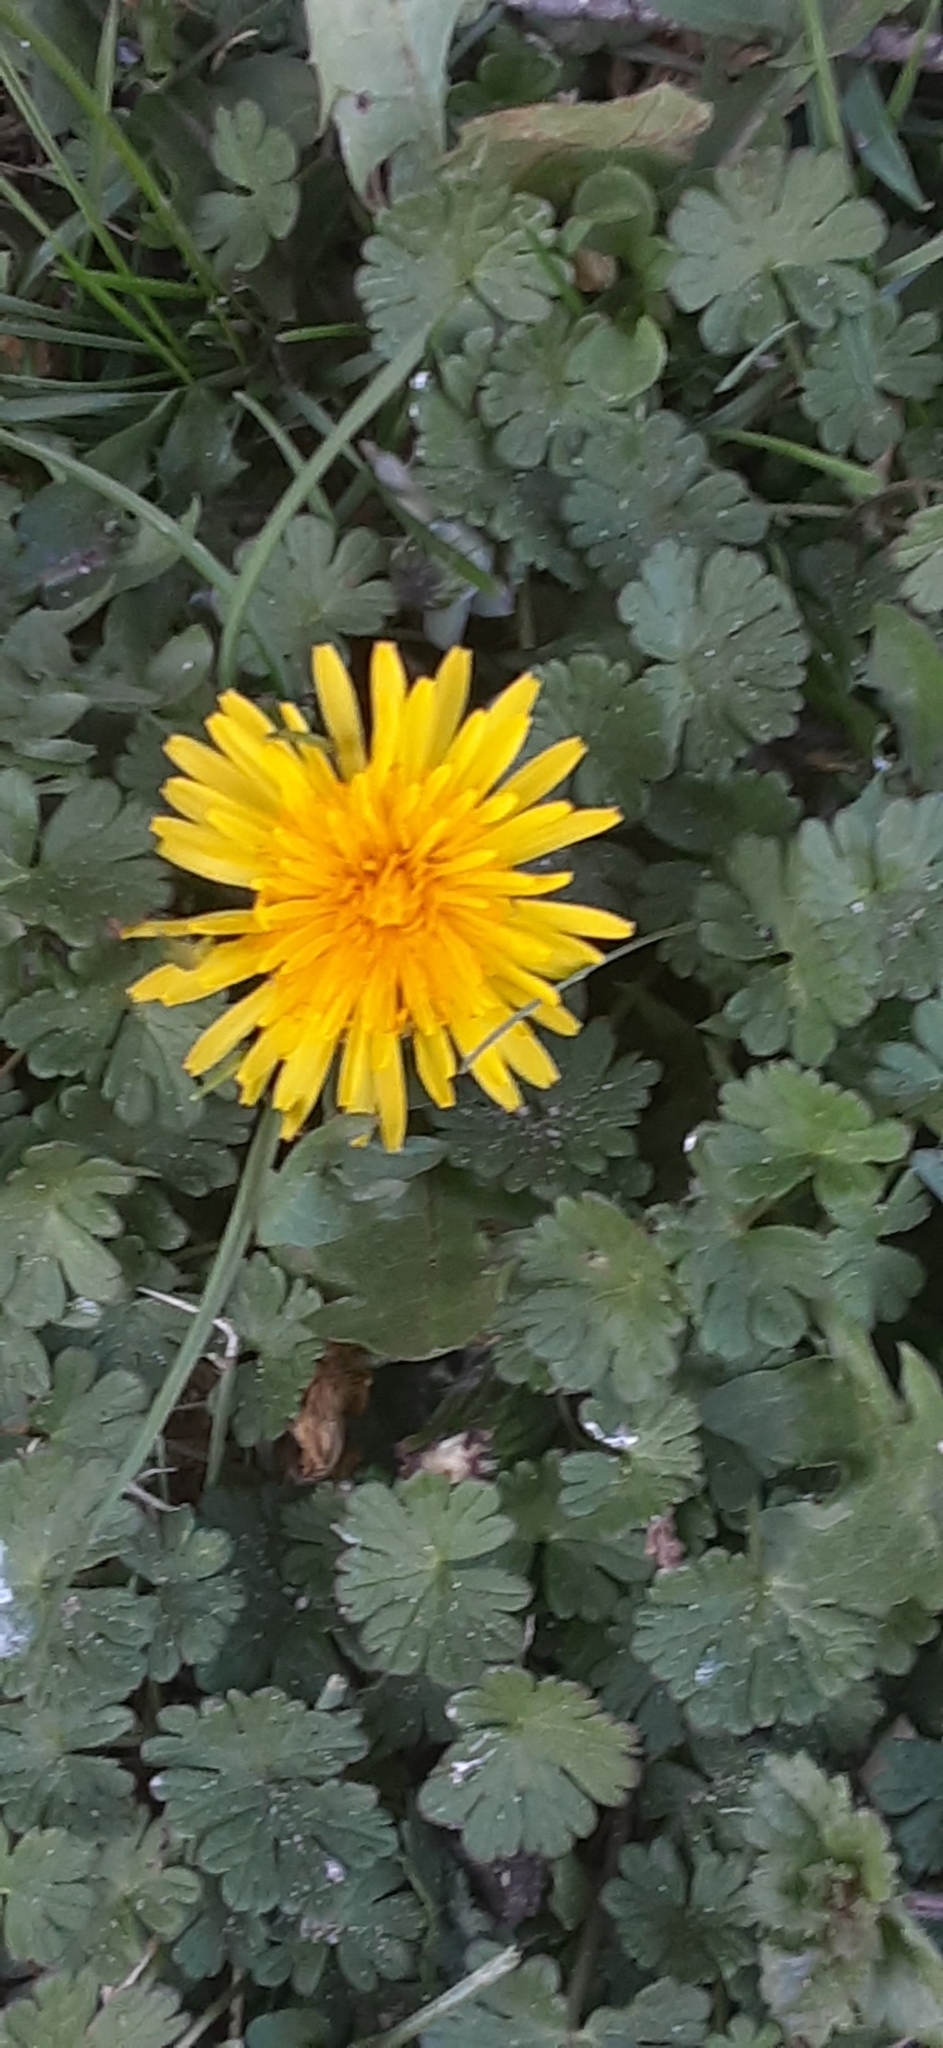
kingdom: Plantae
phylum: Tracheophyta
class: Magnoliopsida
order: Asterales
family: Asteraceae
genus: Taraxacum
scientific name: Taraxacum officinale
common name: Common dandelion
